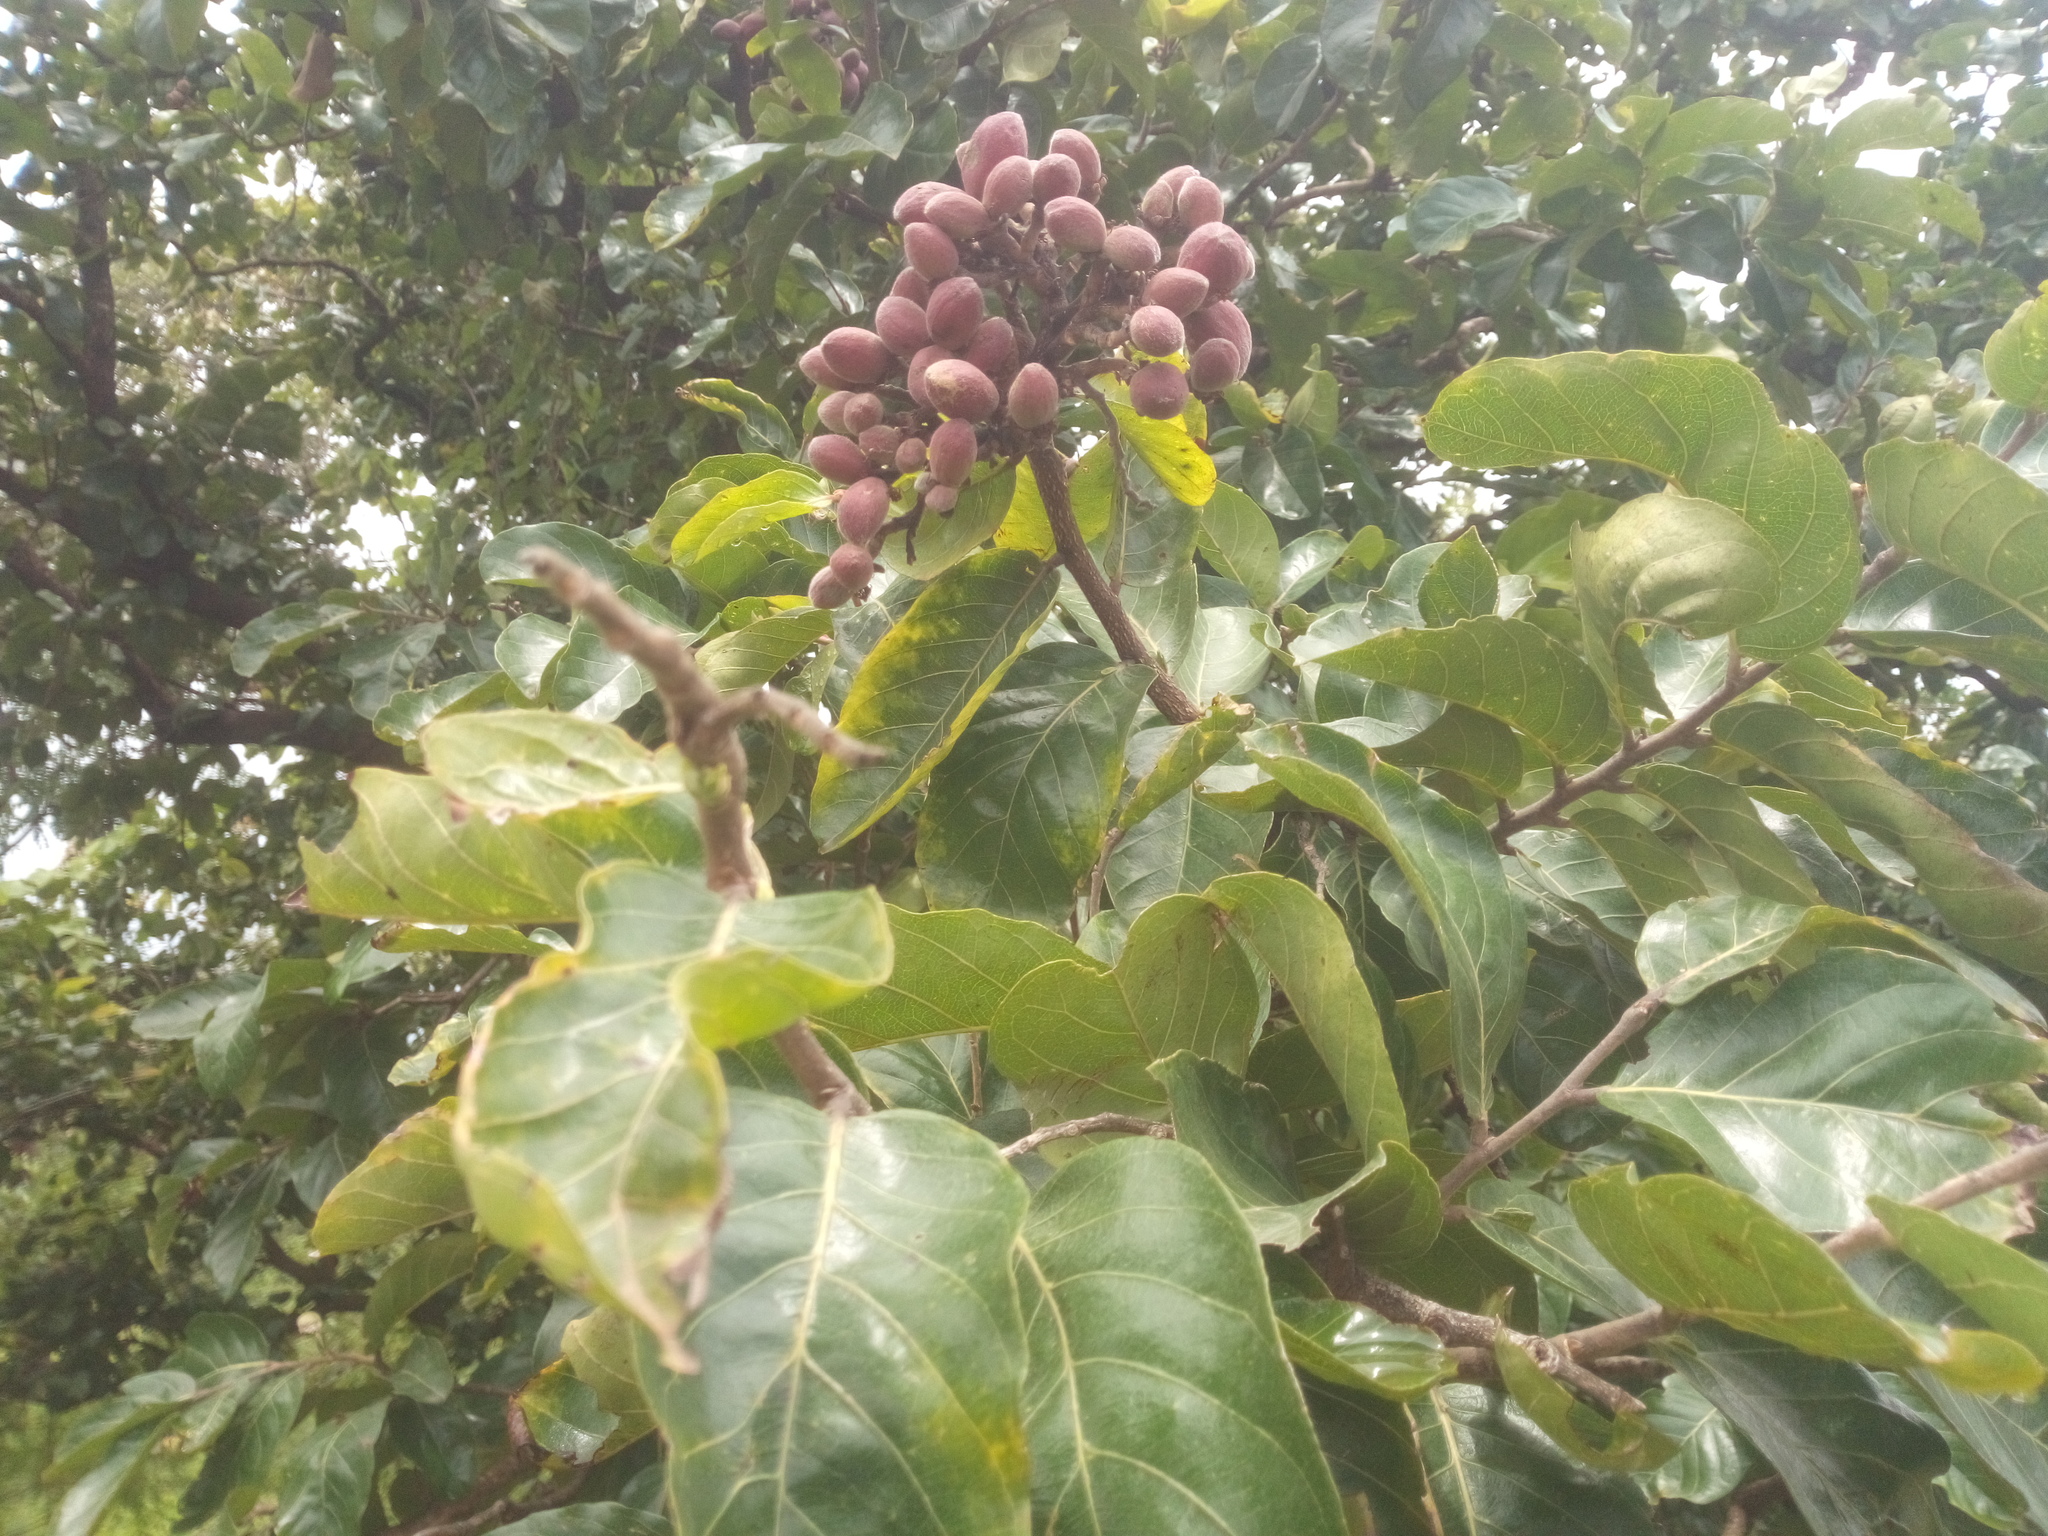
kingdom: Plantae
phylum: Tracheophyta
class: Magnoliopsida
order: Malpighiales
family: Chrysobalanaceae
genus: Maranthes
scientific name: Maranthes polyandra
